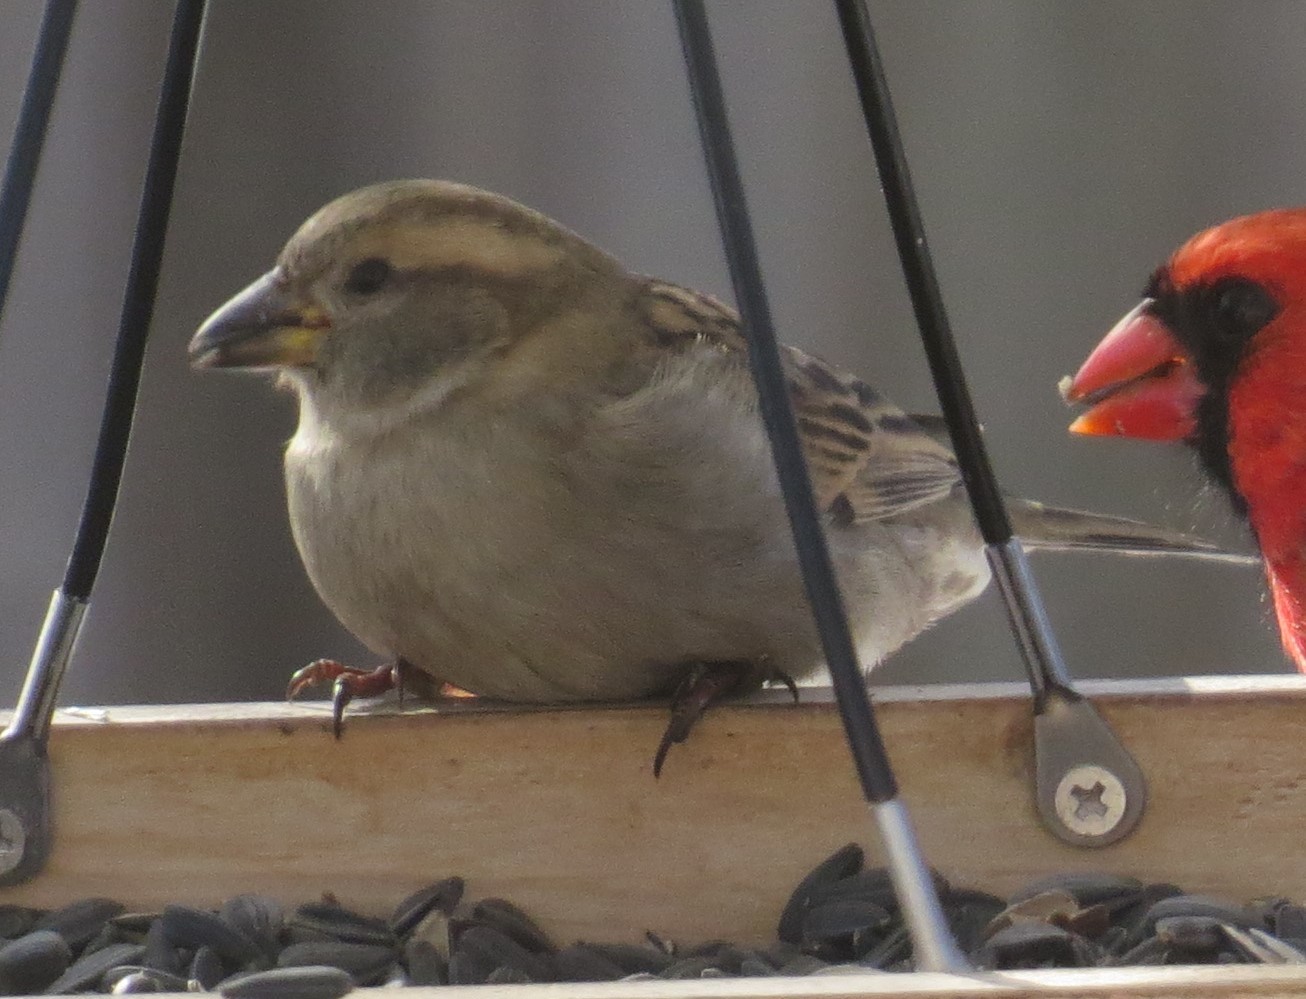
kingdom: Animalia
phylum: Chordata
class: Aves
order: Passeriformes
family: Passeridae
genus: Passer
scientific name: Passer domesticus
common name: House sparrow
